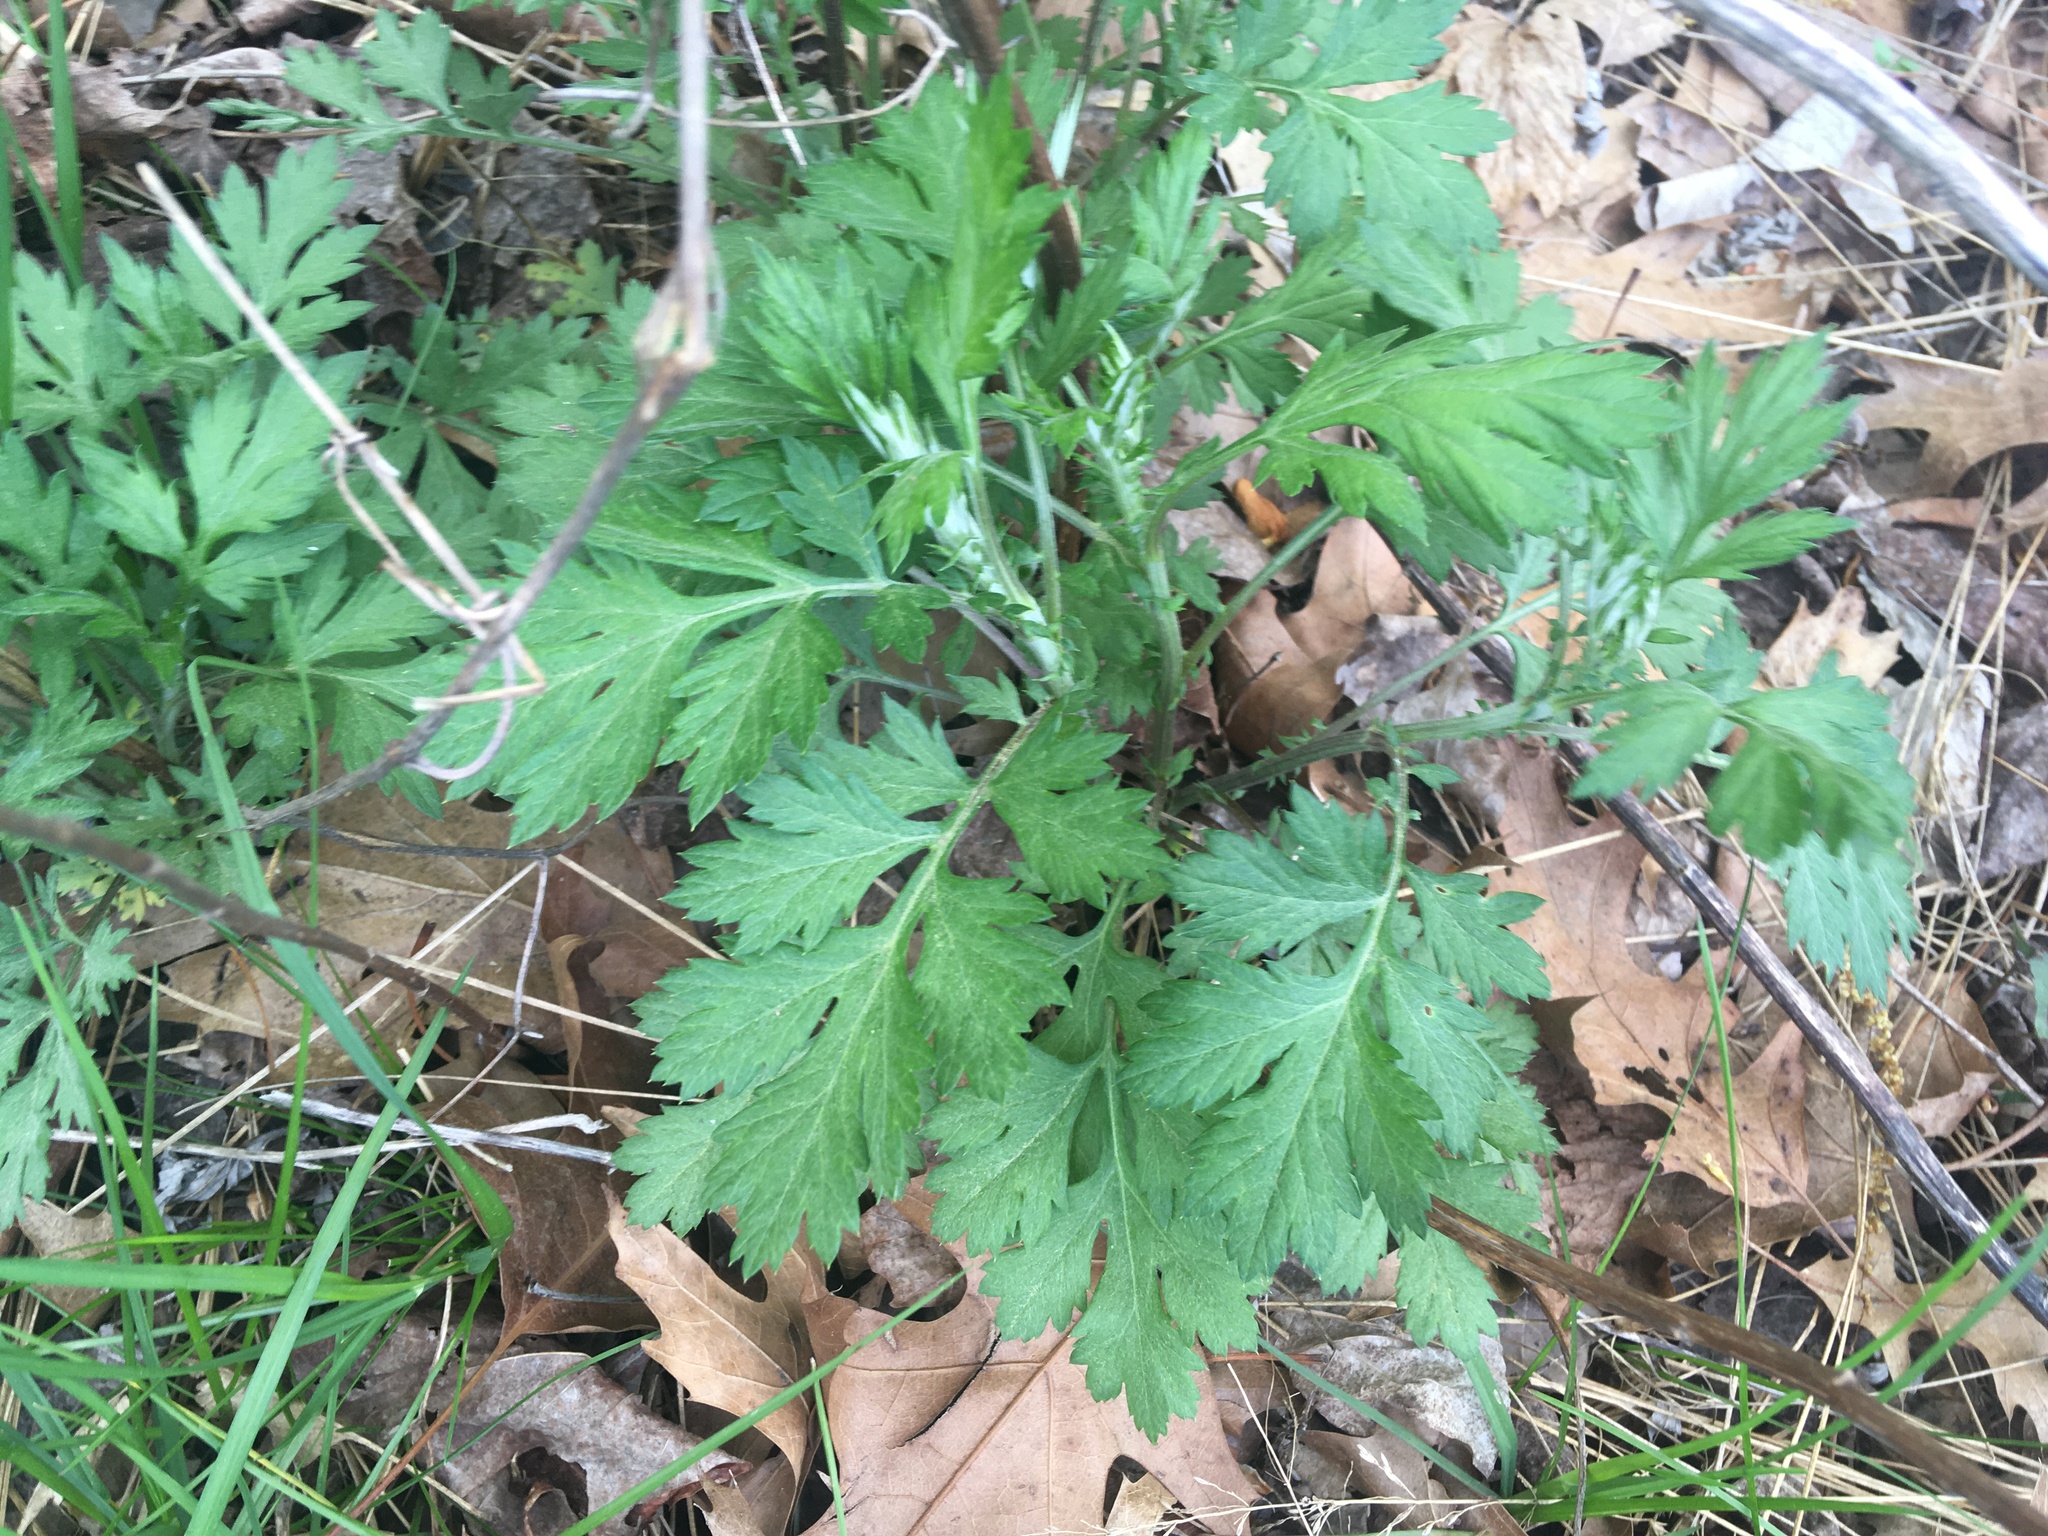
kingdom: Plantae
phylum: Tracheophyta
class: Magnoliopsida
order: Asterales
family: Asteraceae
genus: Artemisia
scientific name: Artemisia vulgaris
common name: Mugwort
